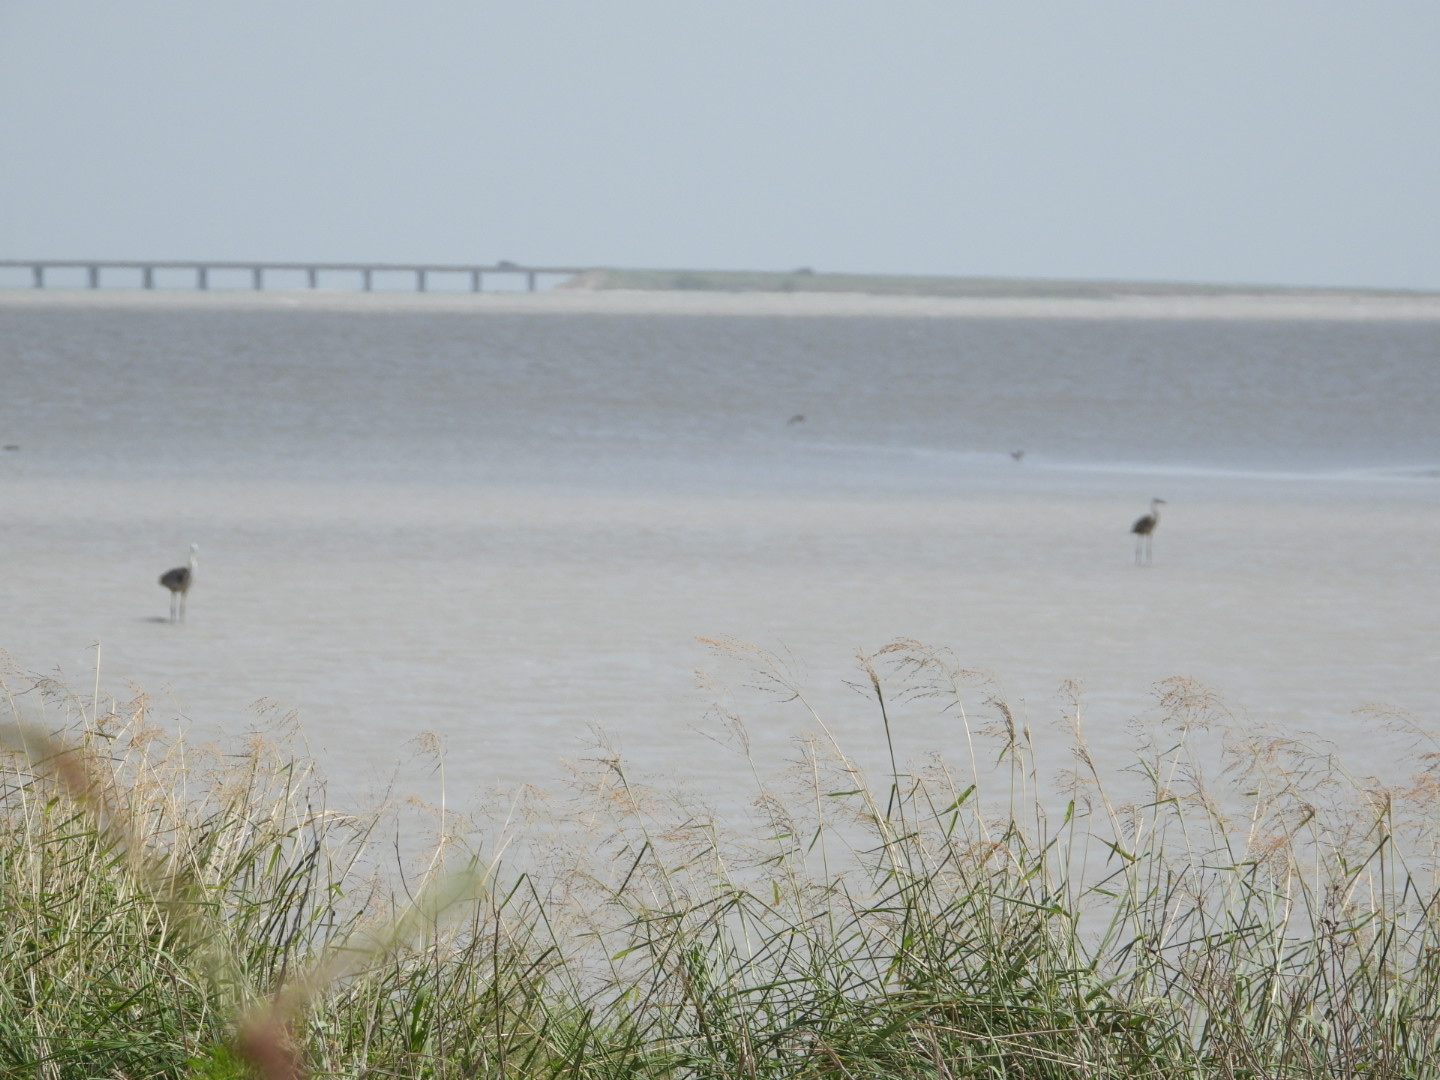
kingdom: Animalia
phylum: Chordata
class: Aves
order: Pelecaniformes
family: Ardeidae
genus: Ardea
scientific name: Ardea herodias
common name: Great blue heron
